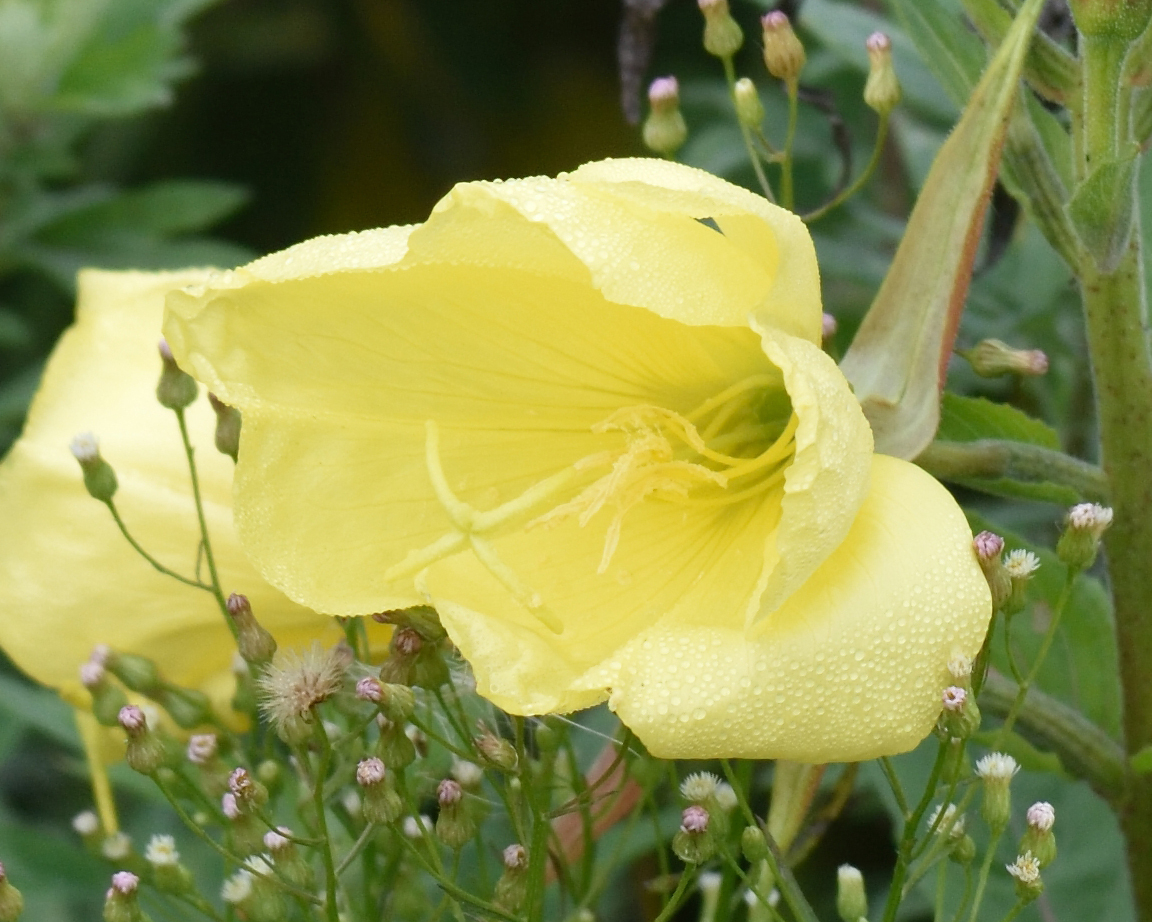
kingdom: Plantae
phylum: Tracheophyta
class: Magnoliopsida
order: Myrtales
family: Onagraceae
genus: Oenothera
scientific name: Oenothera glazioviana
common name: Large-flowered evening-primrose
